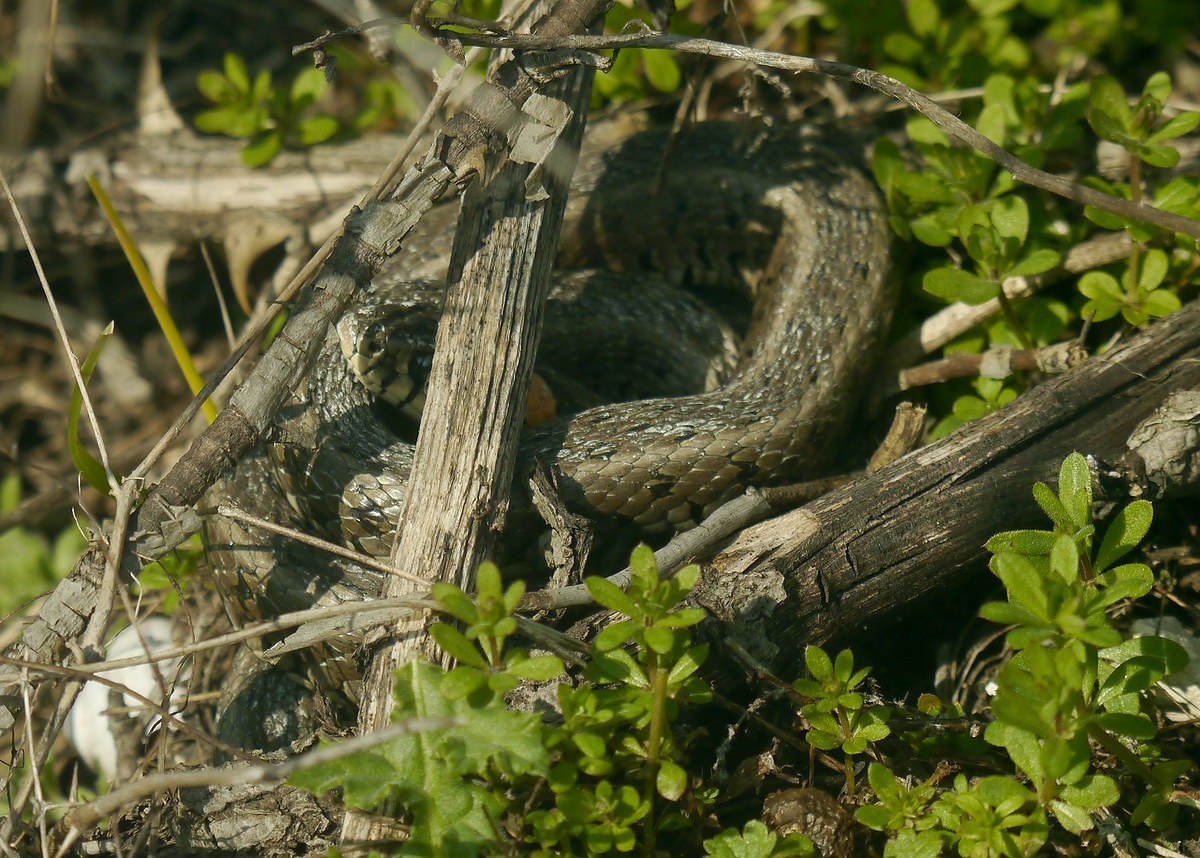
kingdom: Animalia
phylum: Chordata
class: Squamata
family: Colubridae
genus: Natrix
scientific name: Natrix natrix
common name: Grass snake
